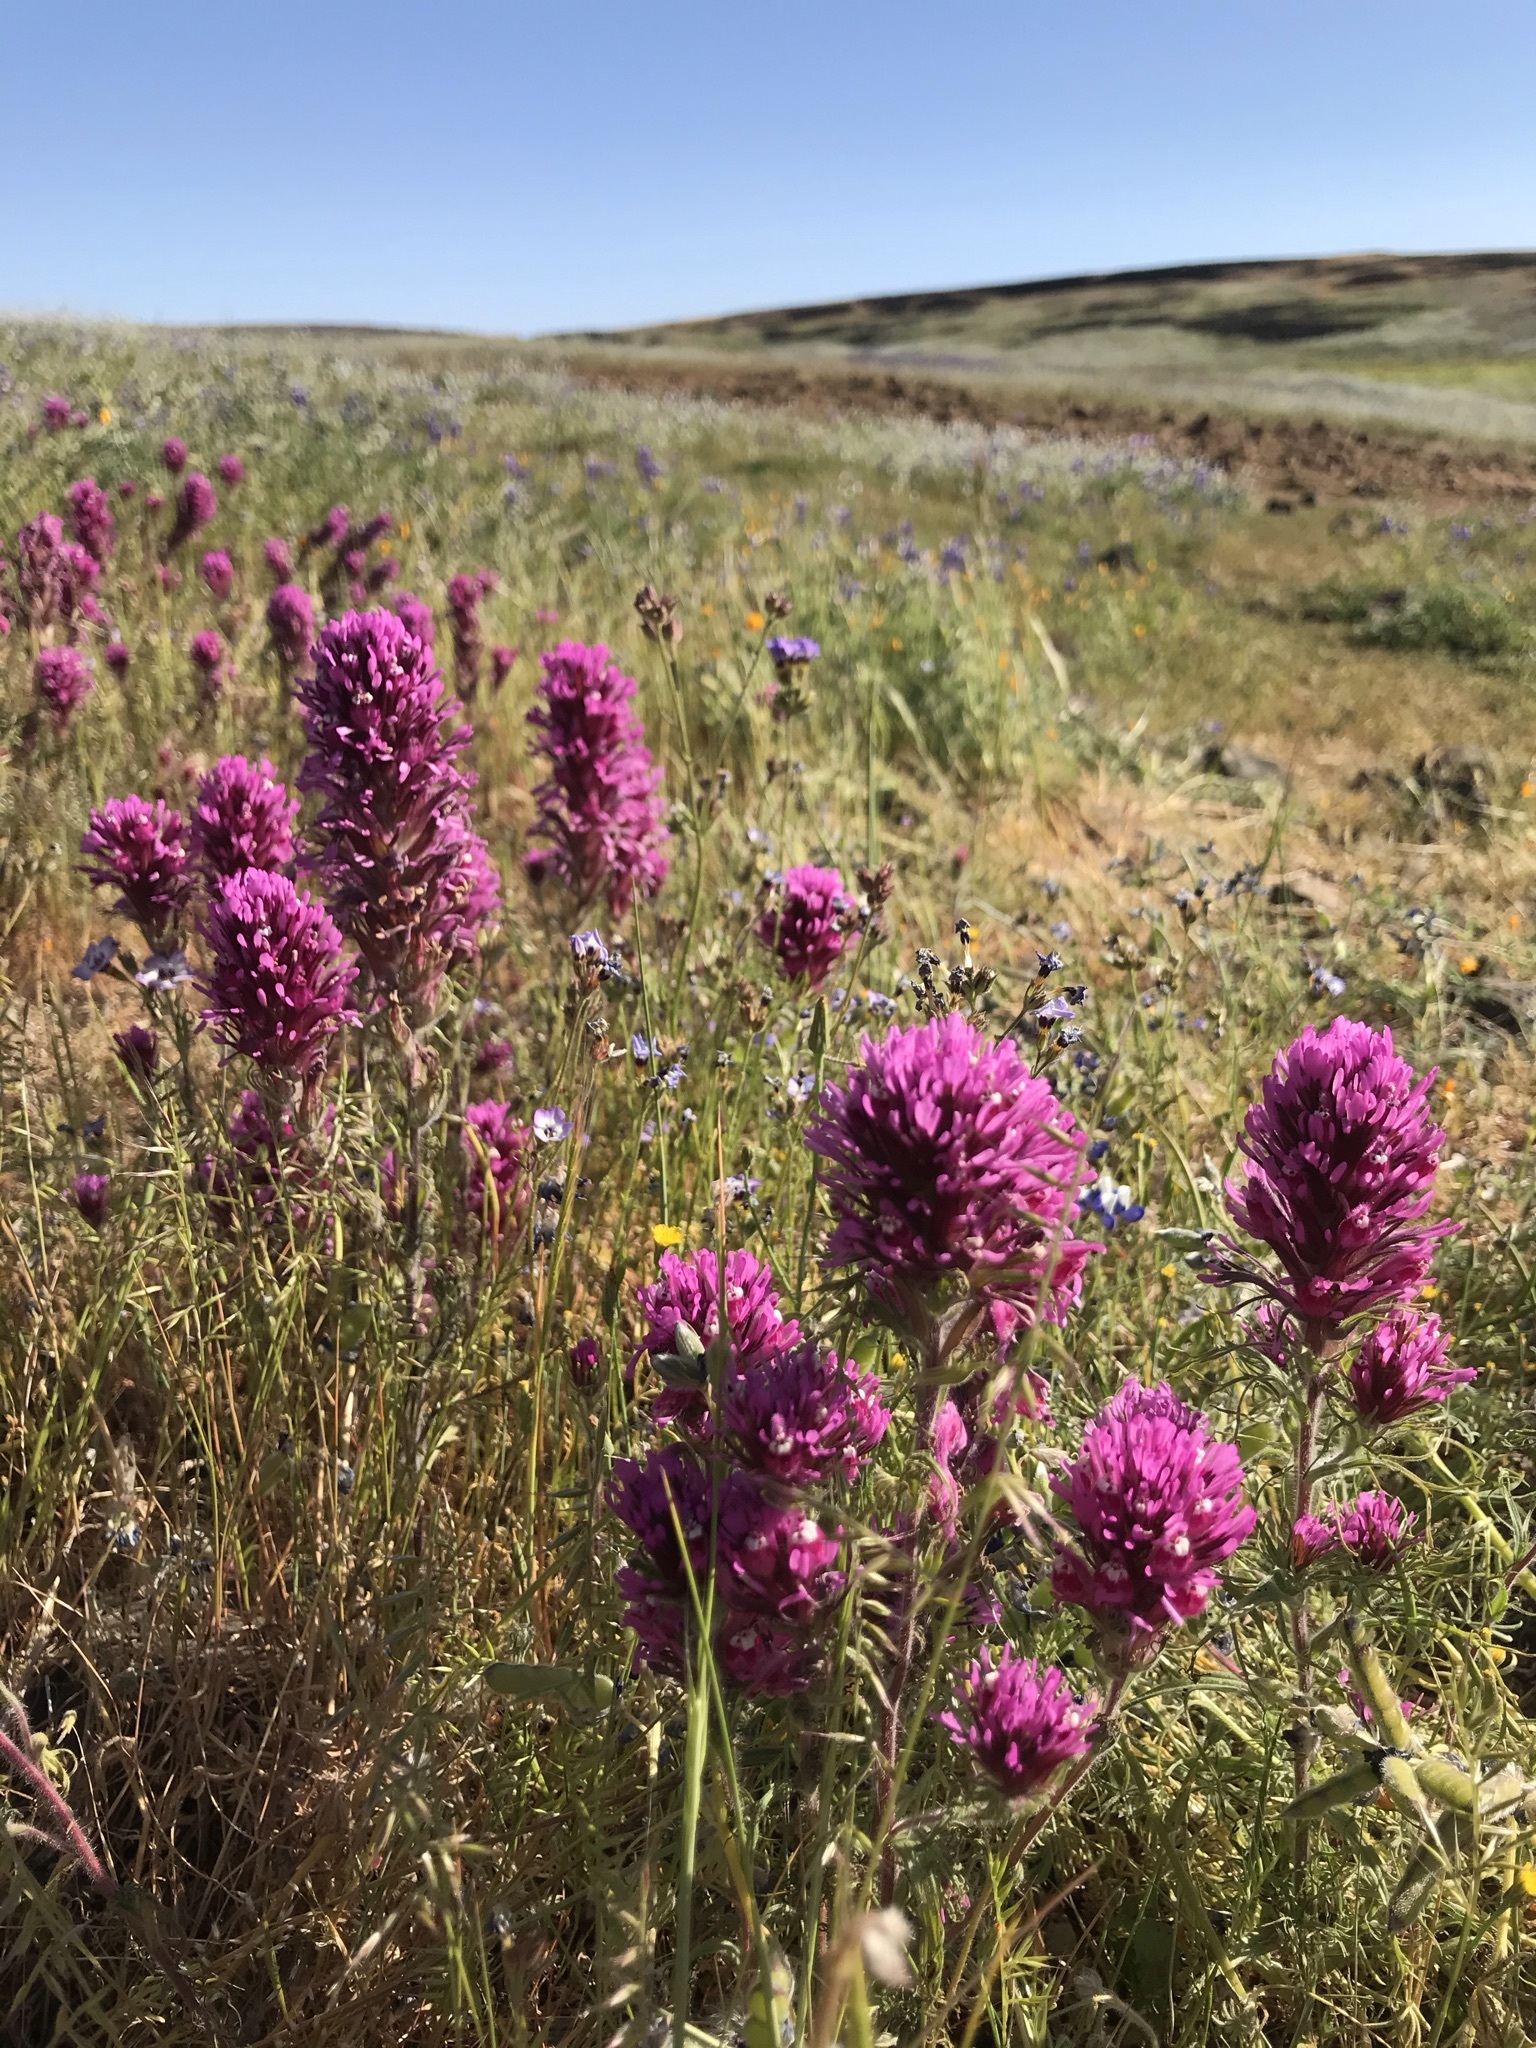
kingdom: Plantae
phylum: Tracheophyta
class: Magnoliopsida
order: Lamiales
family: Orobanchaceae
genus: Castilleja
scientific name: Castilleja exserta
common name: Purple owl-clover
